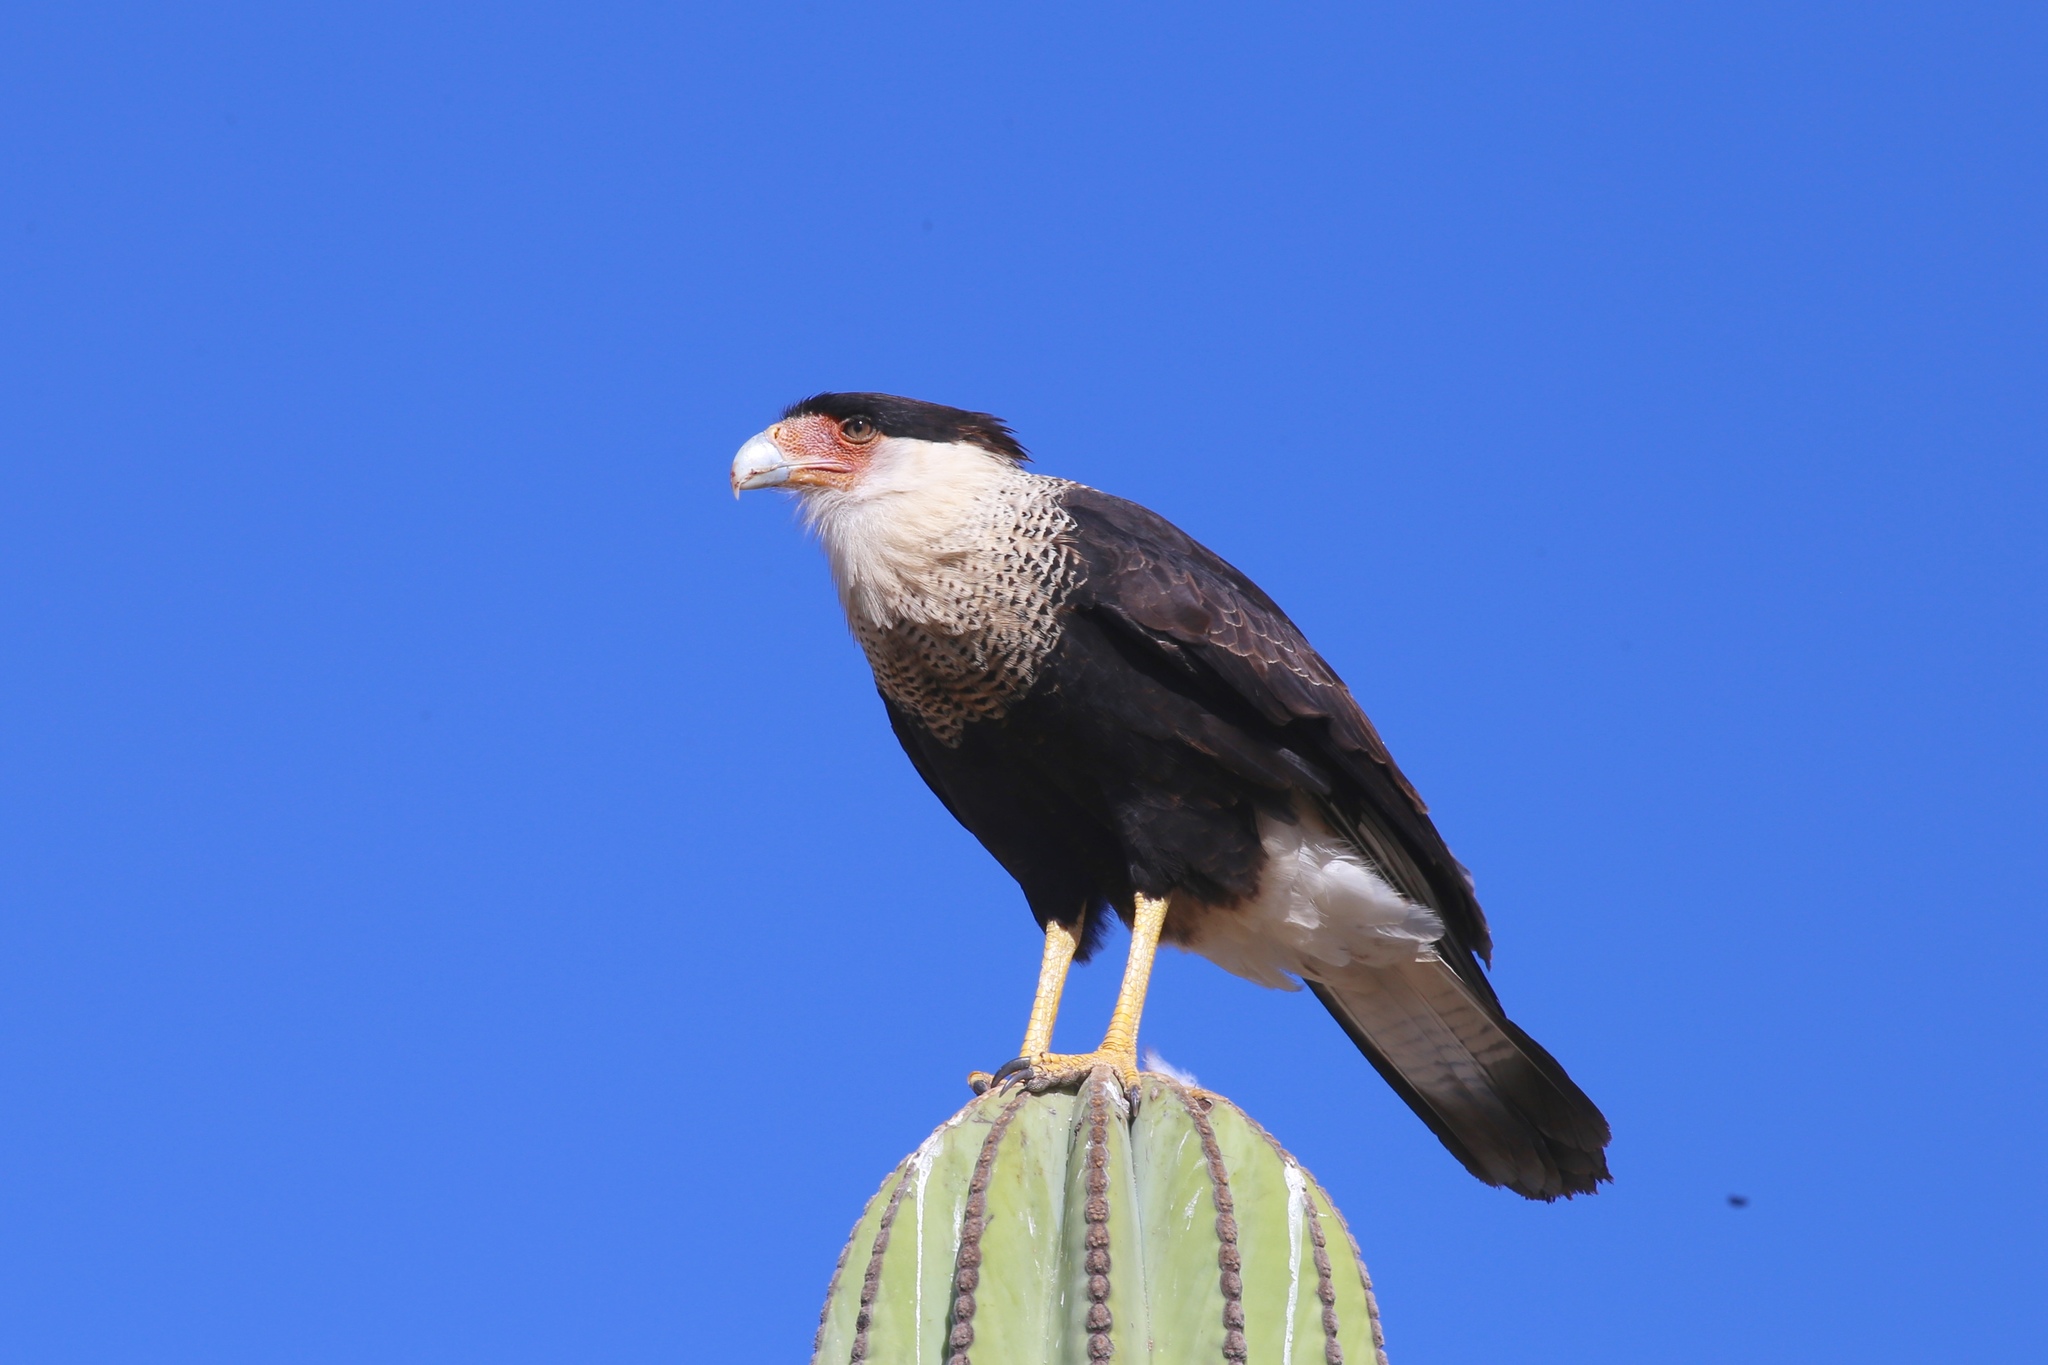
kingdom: Animalia
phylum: Chordata
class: Aves
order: Falconiformes
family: Falconidae
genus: Caracara
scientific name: Caracara plancus
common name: Southern caracara
